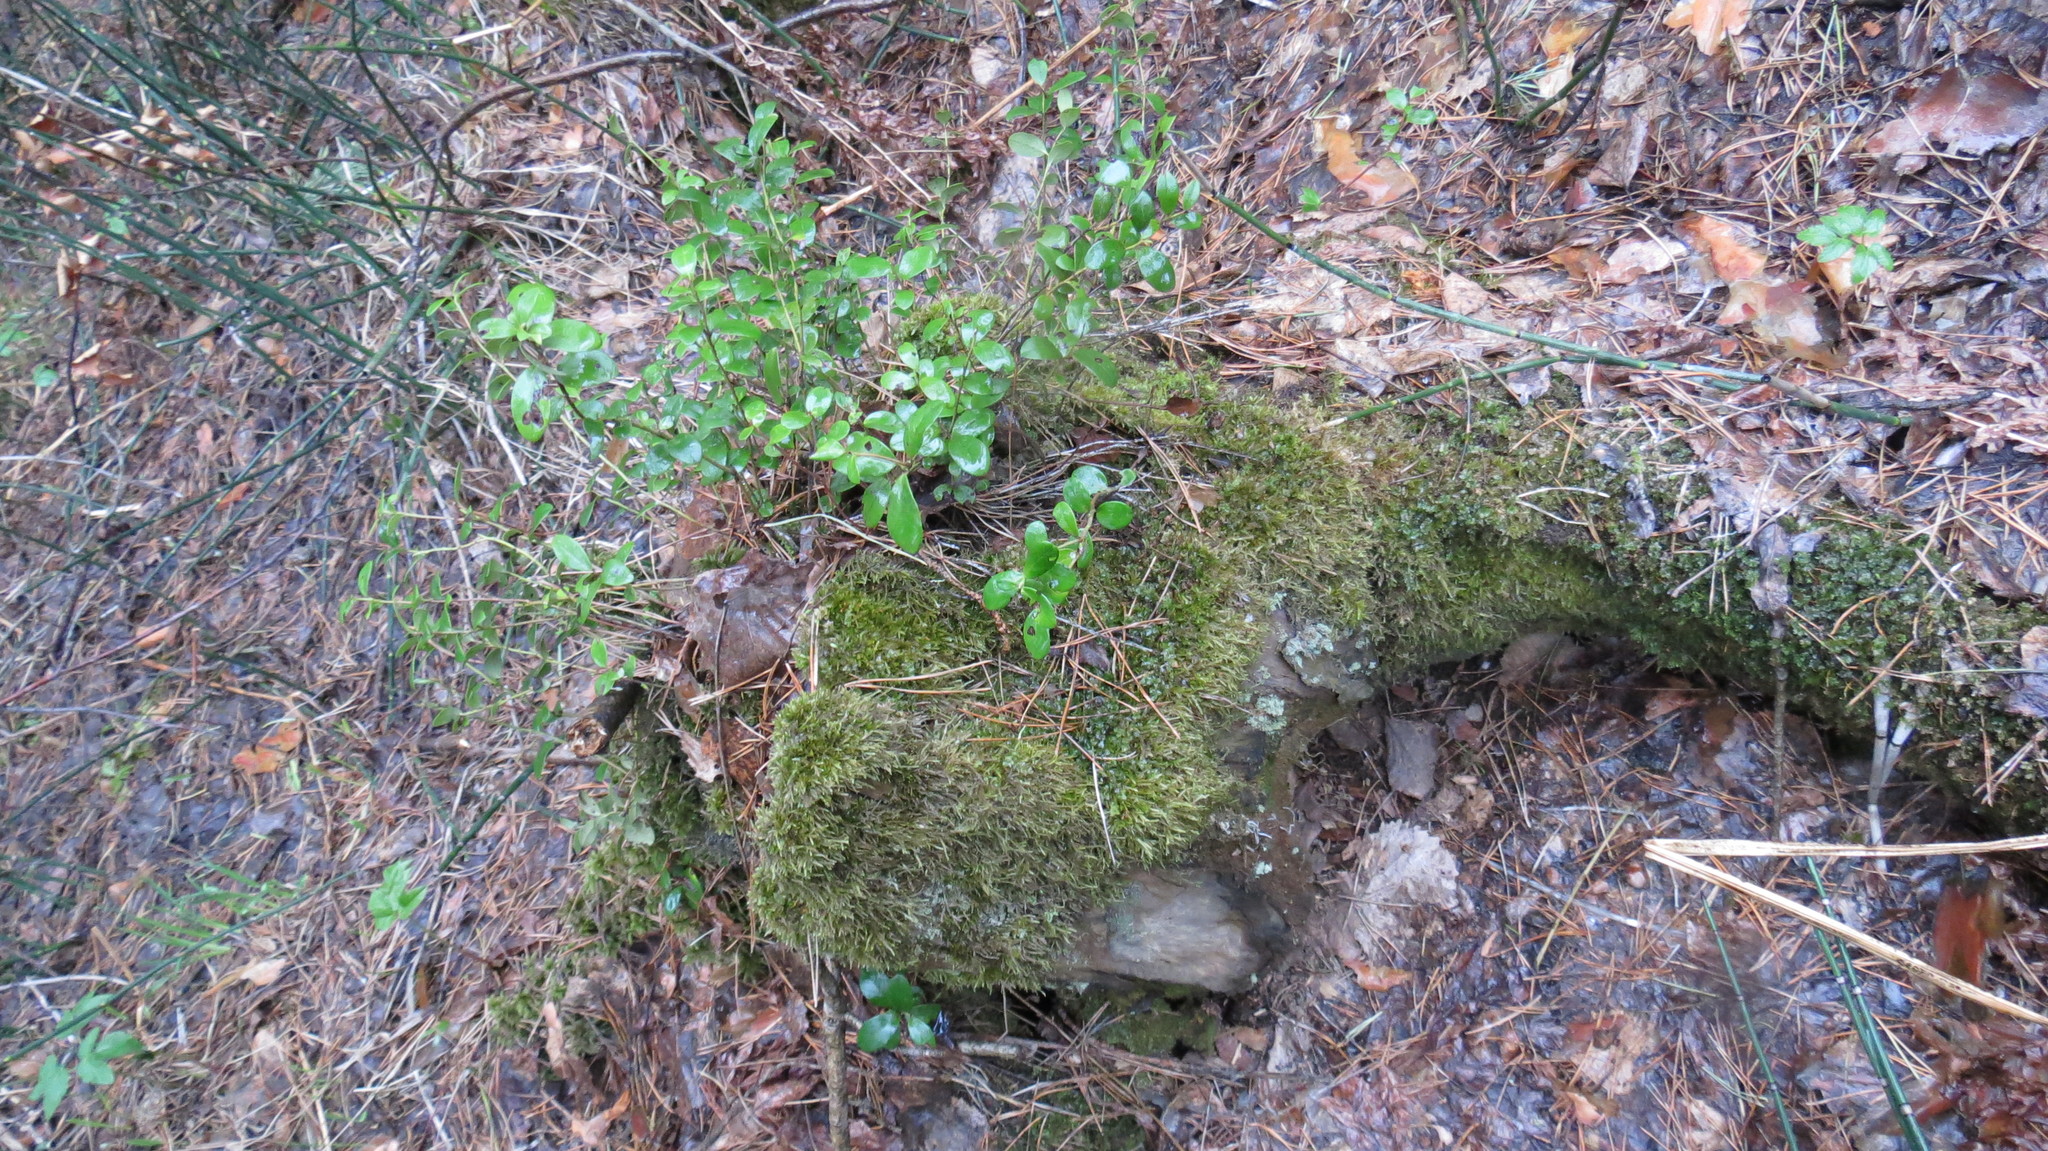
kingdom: Plantae
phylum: Tracheophyta
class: Magnoliopsida
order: Ericales
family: Ericaceae
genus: Vaccinium
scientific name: Vaccinium vitis-idaea
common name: Cowberry
